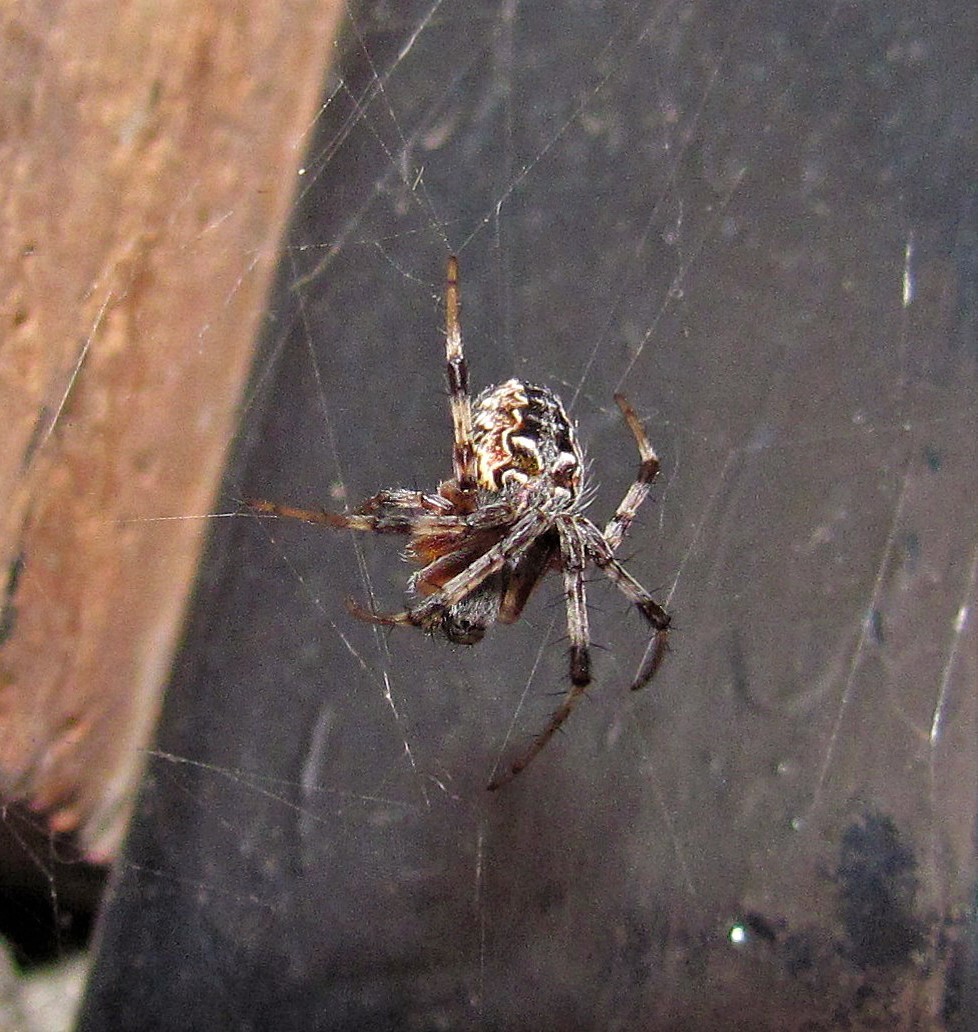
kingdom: Animalia
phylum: Arthropoda
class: Arachnida
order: Araneae
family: Araneidae
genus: Metepeira
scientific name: Metepeira
